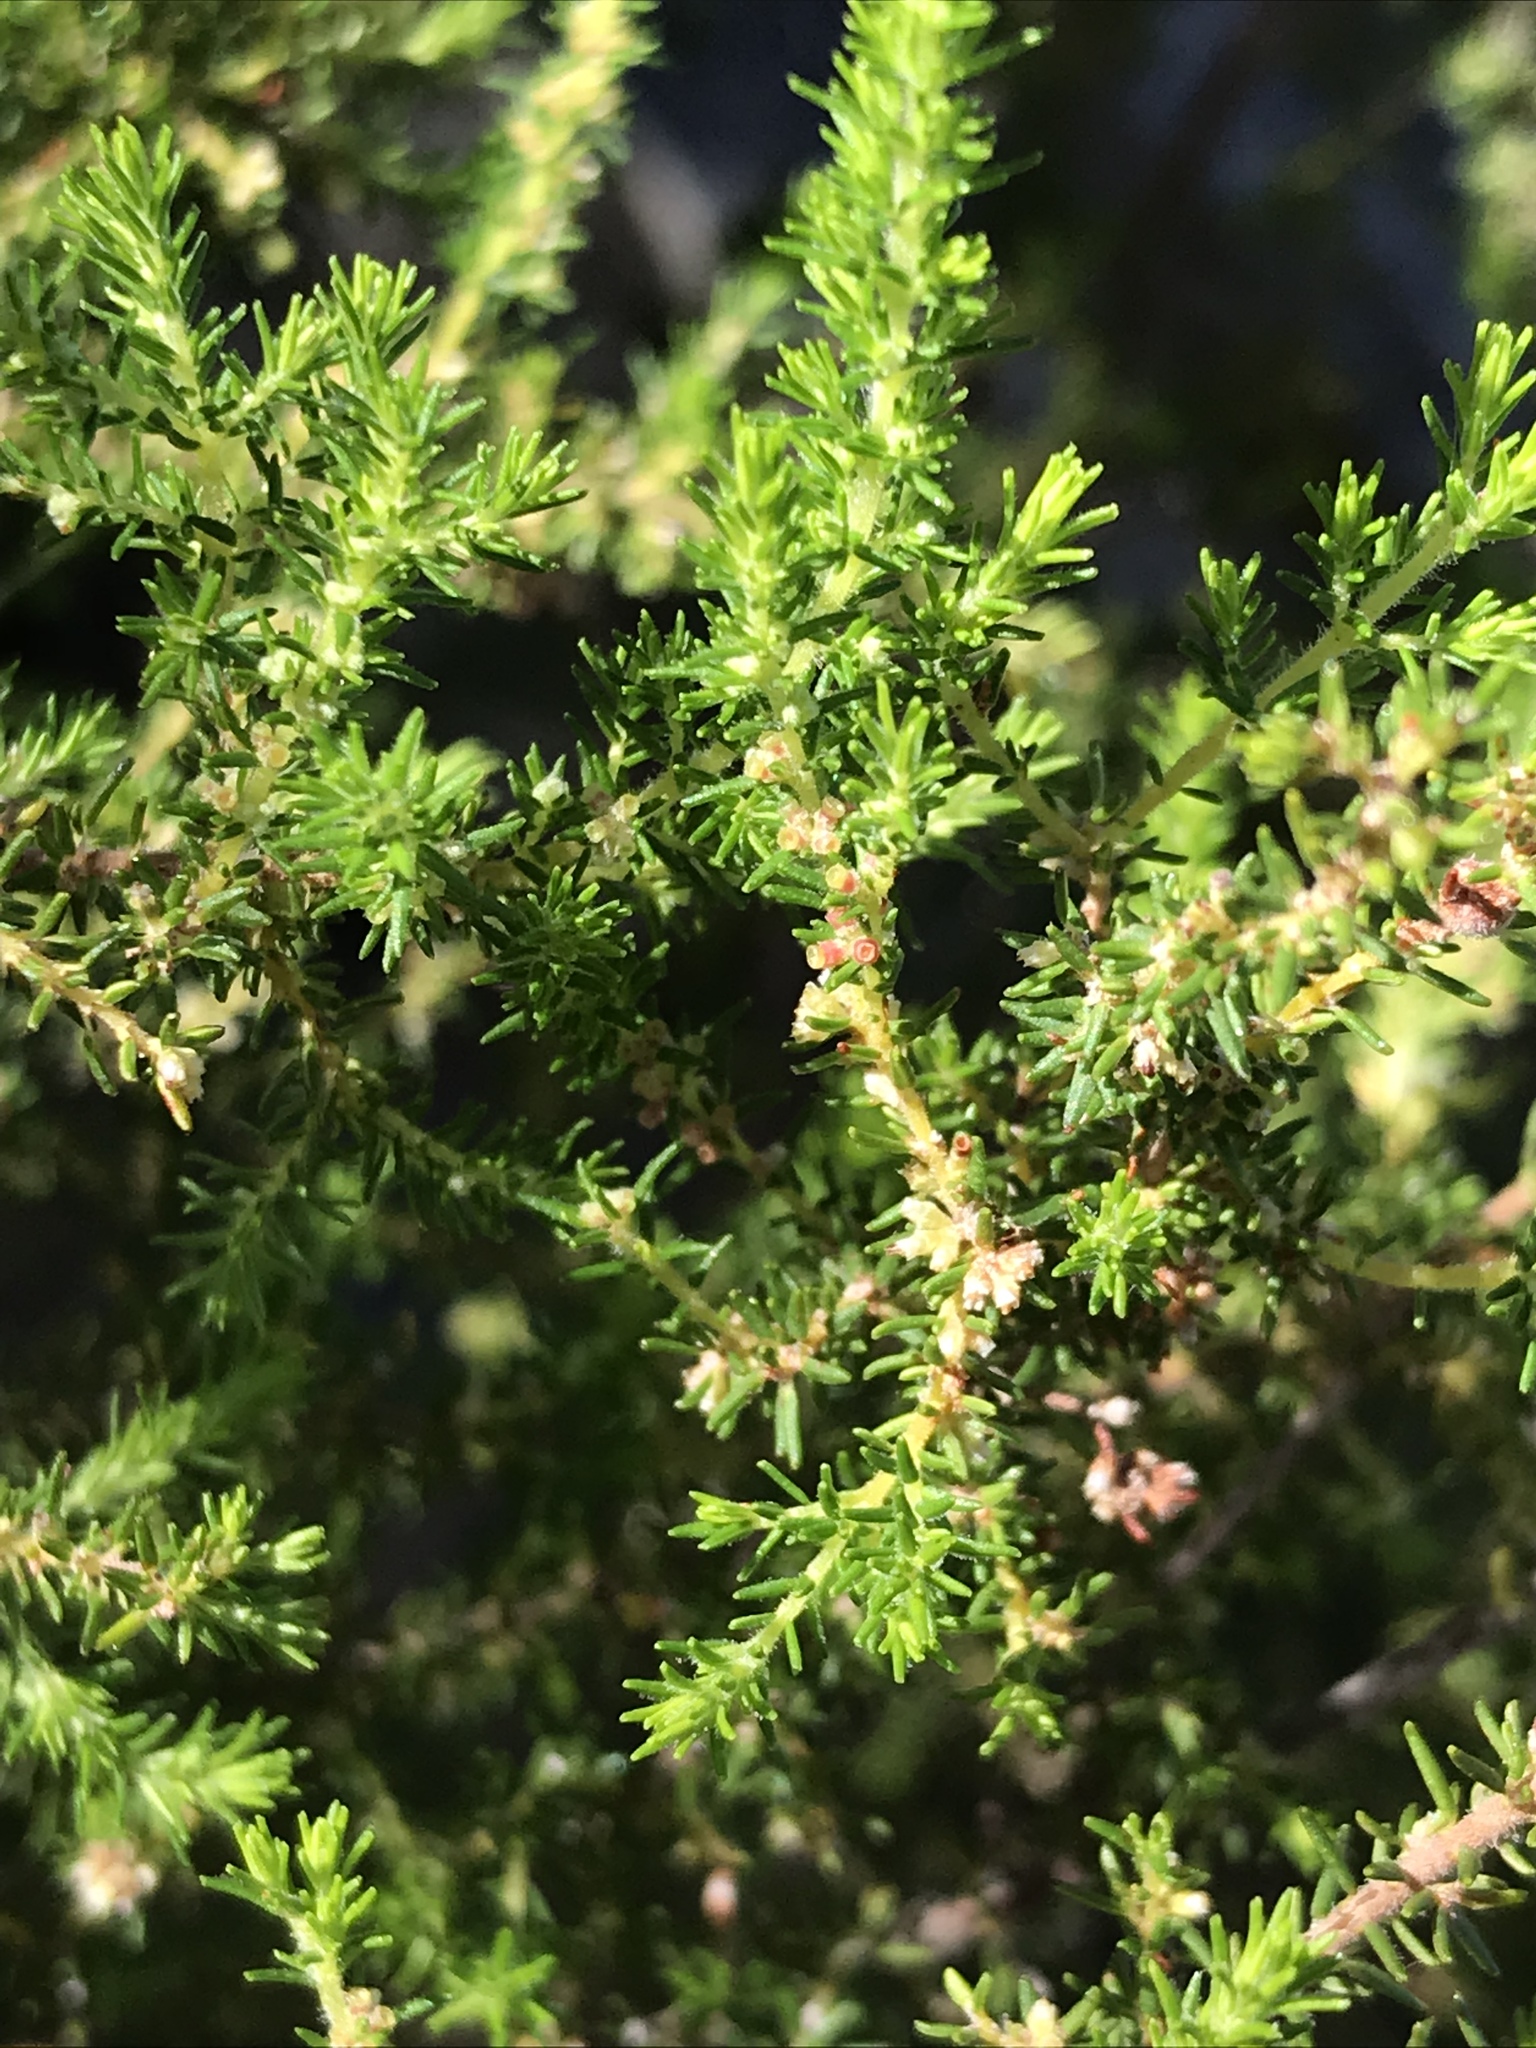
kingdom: Plantae
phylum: Tracheophyta
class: Magnoliopsida
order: Ericales
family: Ericaceae
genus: Erica
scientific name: Erica muscosa
